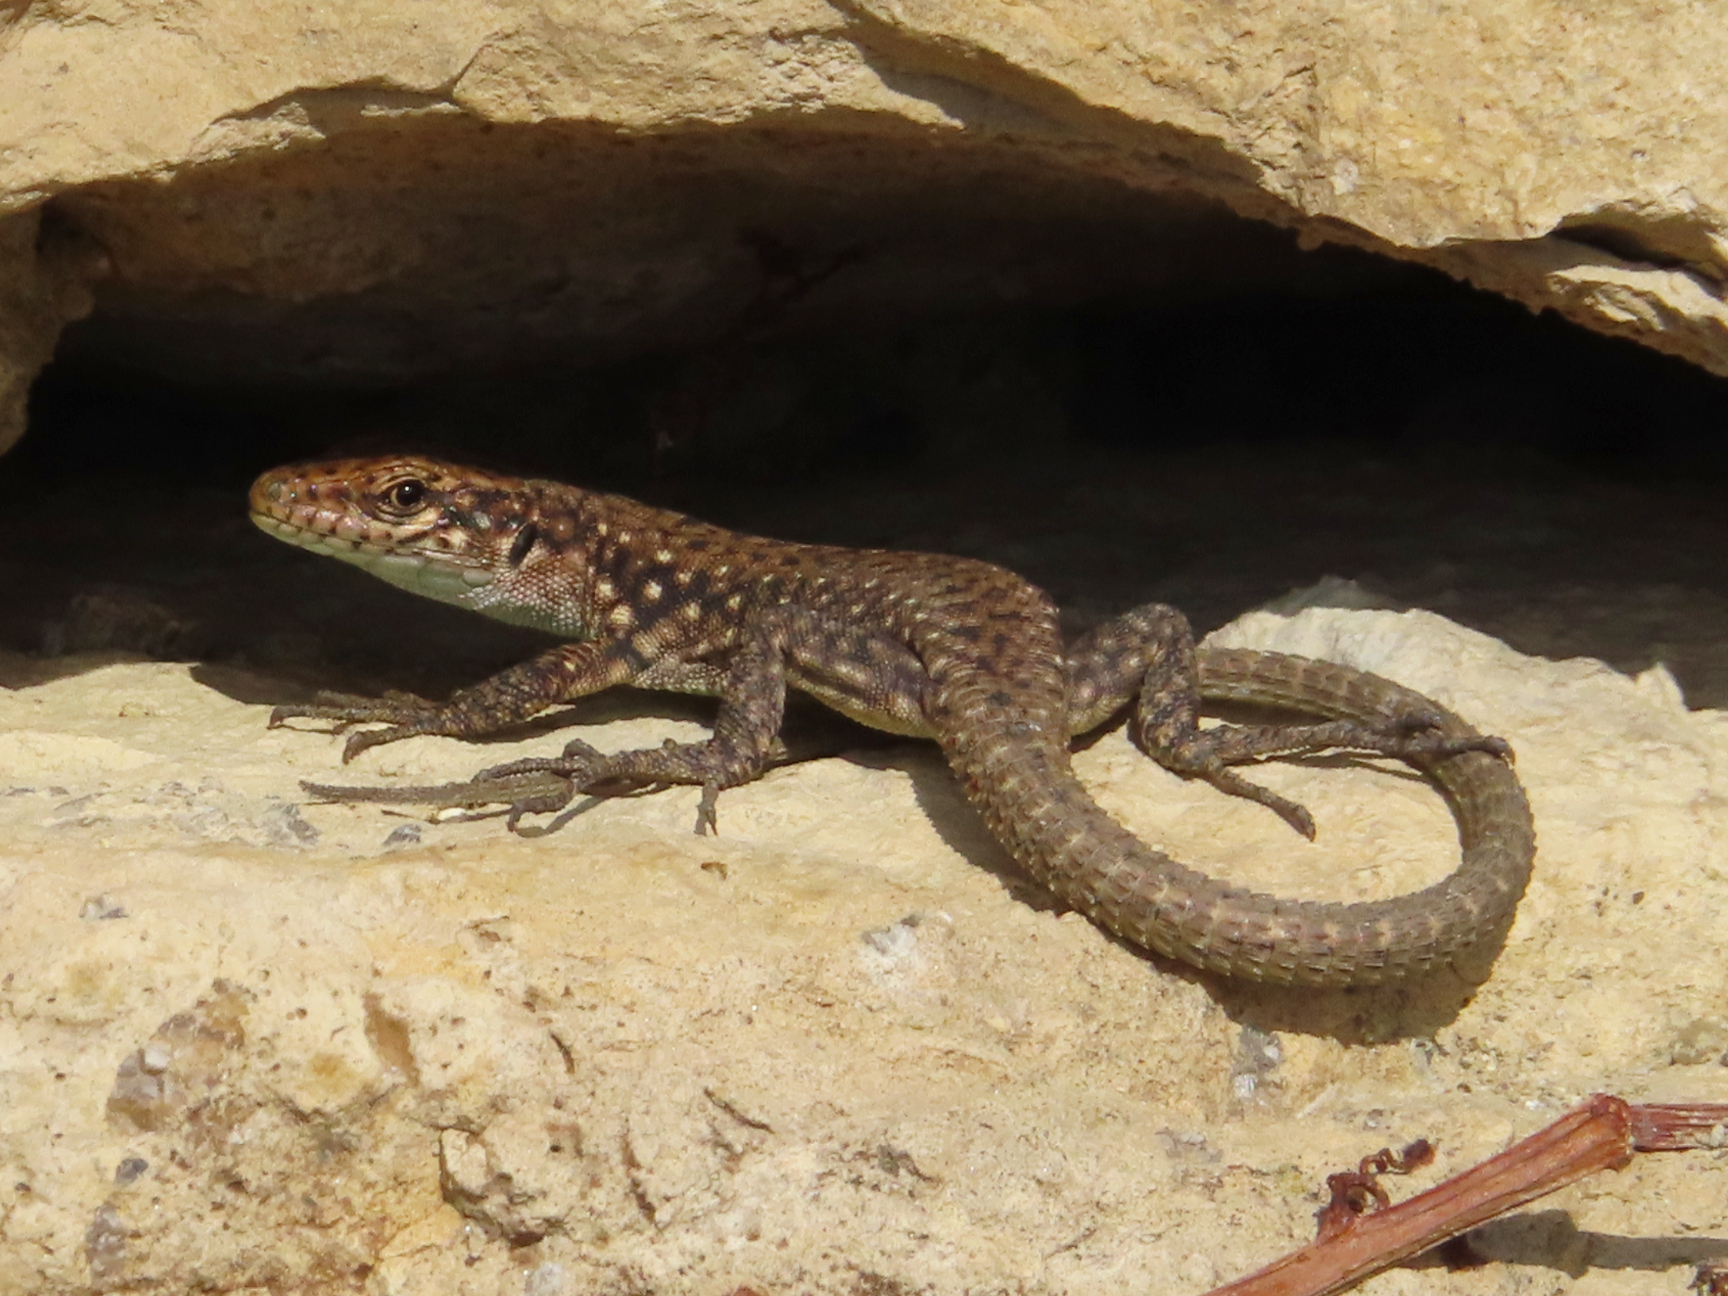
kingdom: Animalia
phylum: Chordata
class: Squamata
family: Lacertidae
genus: Darevskia
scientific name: Darevskia rudis
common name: Spiny-tailed lizard
